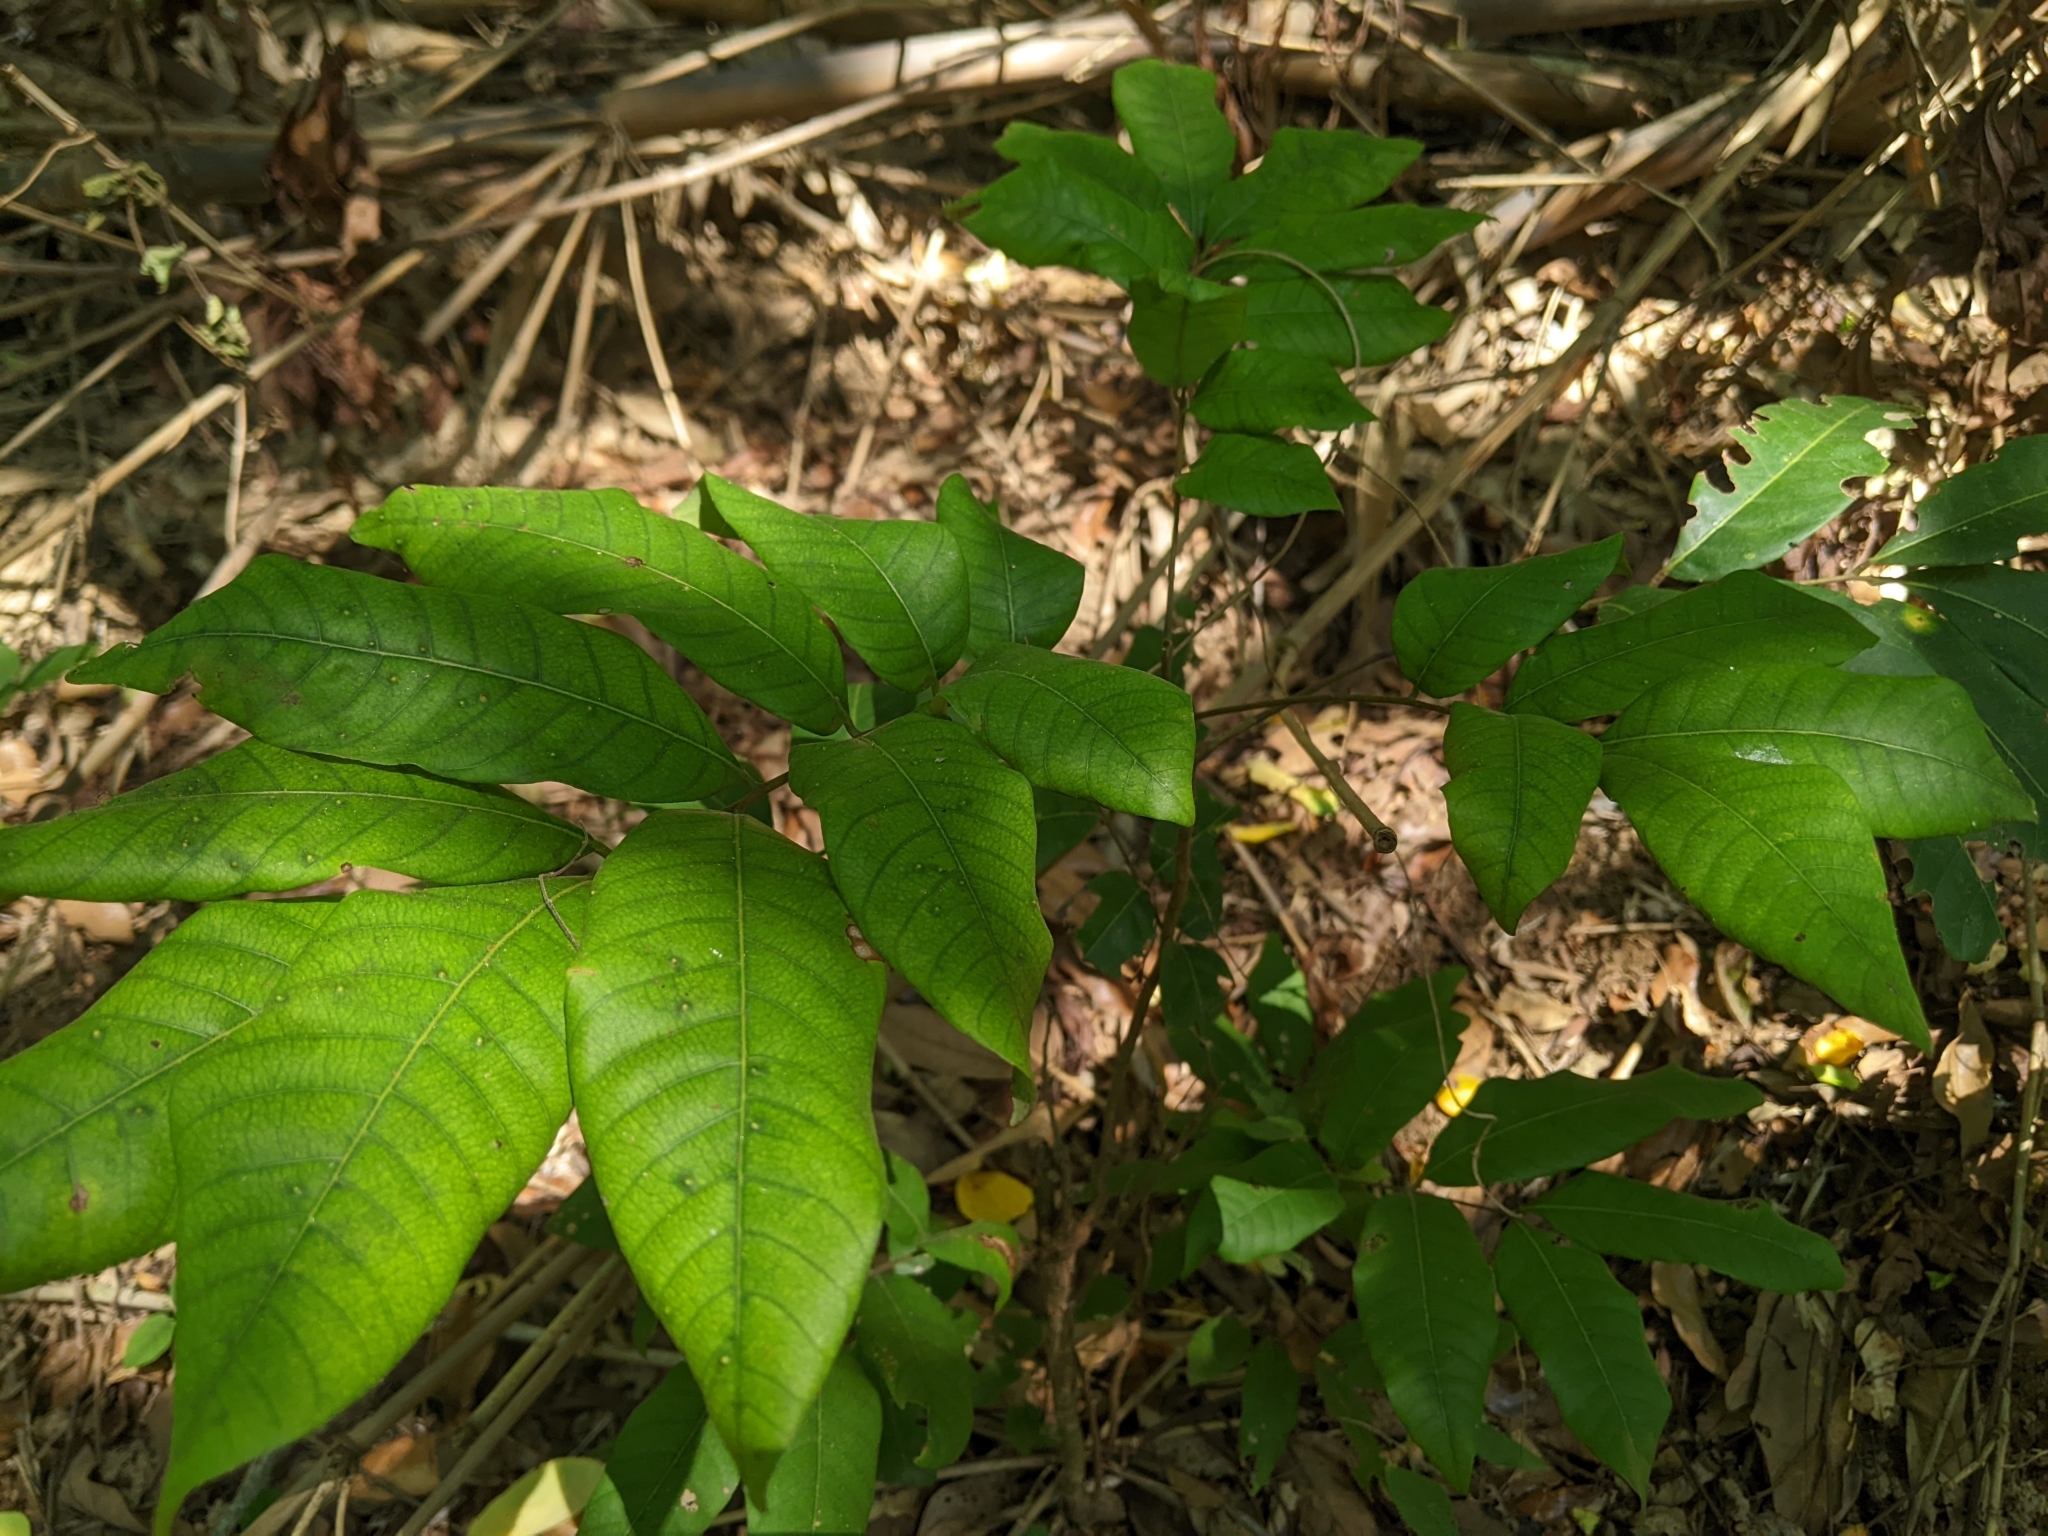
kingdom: Plantae
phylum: Tracheophyta
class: Magnoliopsida
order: Sapindales
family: Sapindaceae
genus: Dimocarpus
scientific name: Dimocarpus longan
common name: Longan
